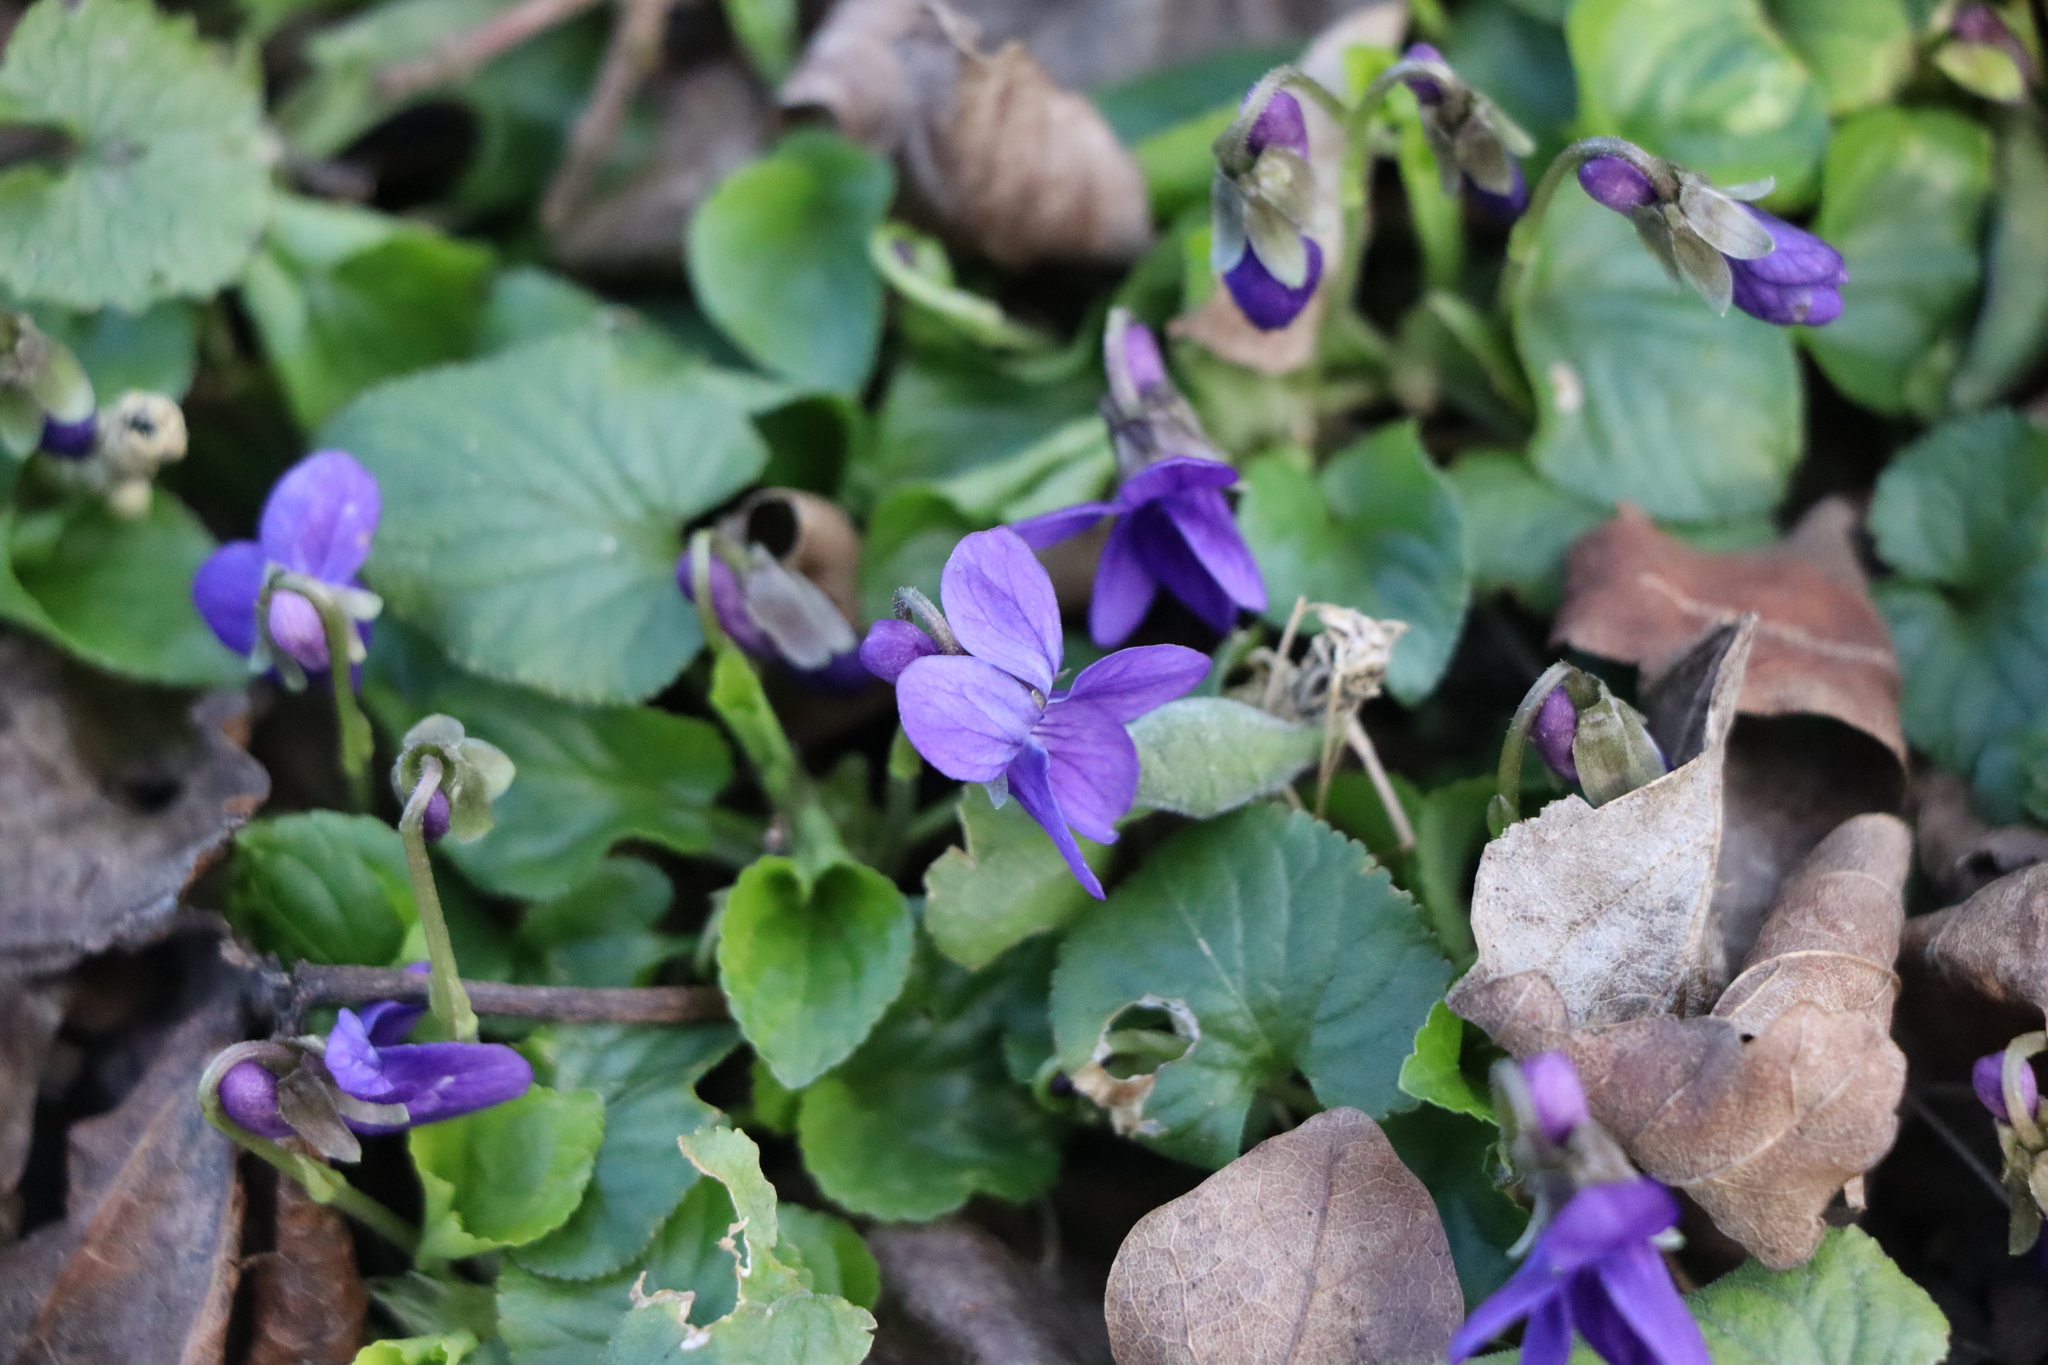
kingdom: Plantae
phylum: Tracheophyta
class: Magnoliopsida
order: Malpighiales
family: Violaceae
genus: Viola
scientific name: Viola odorata
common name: Sweet violet
